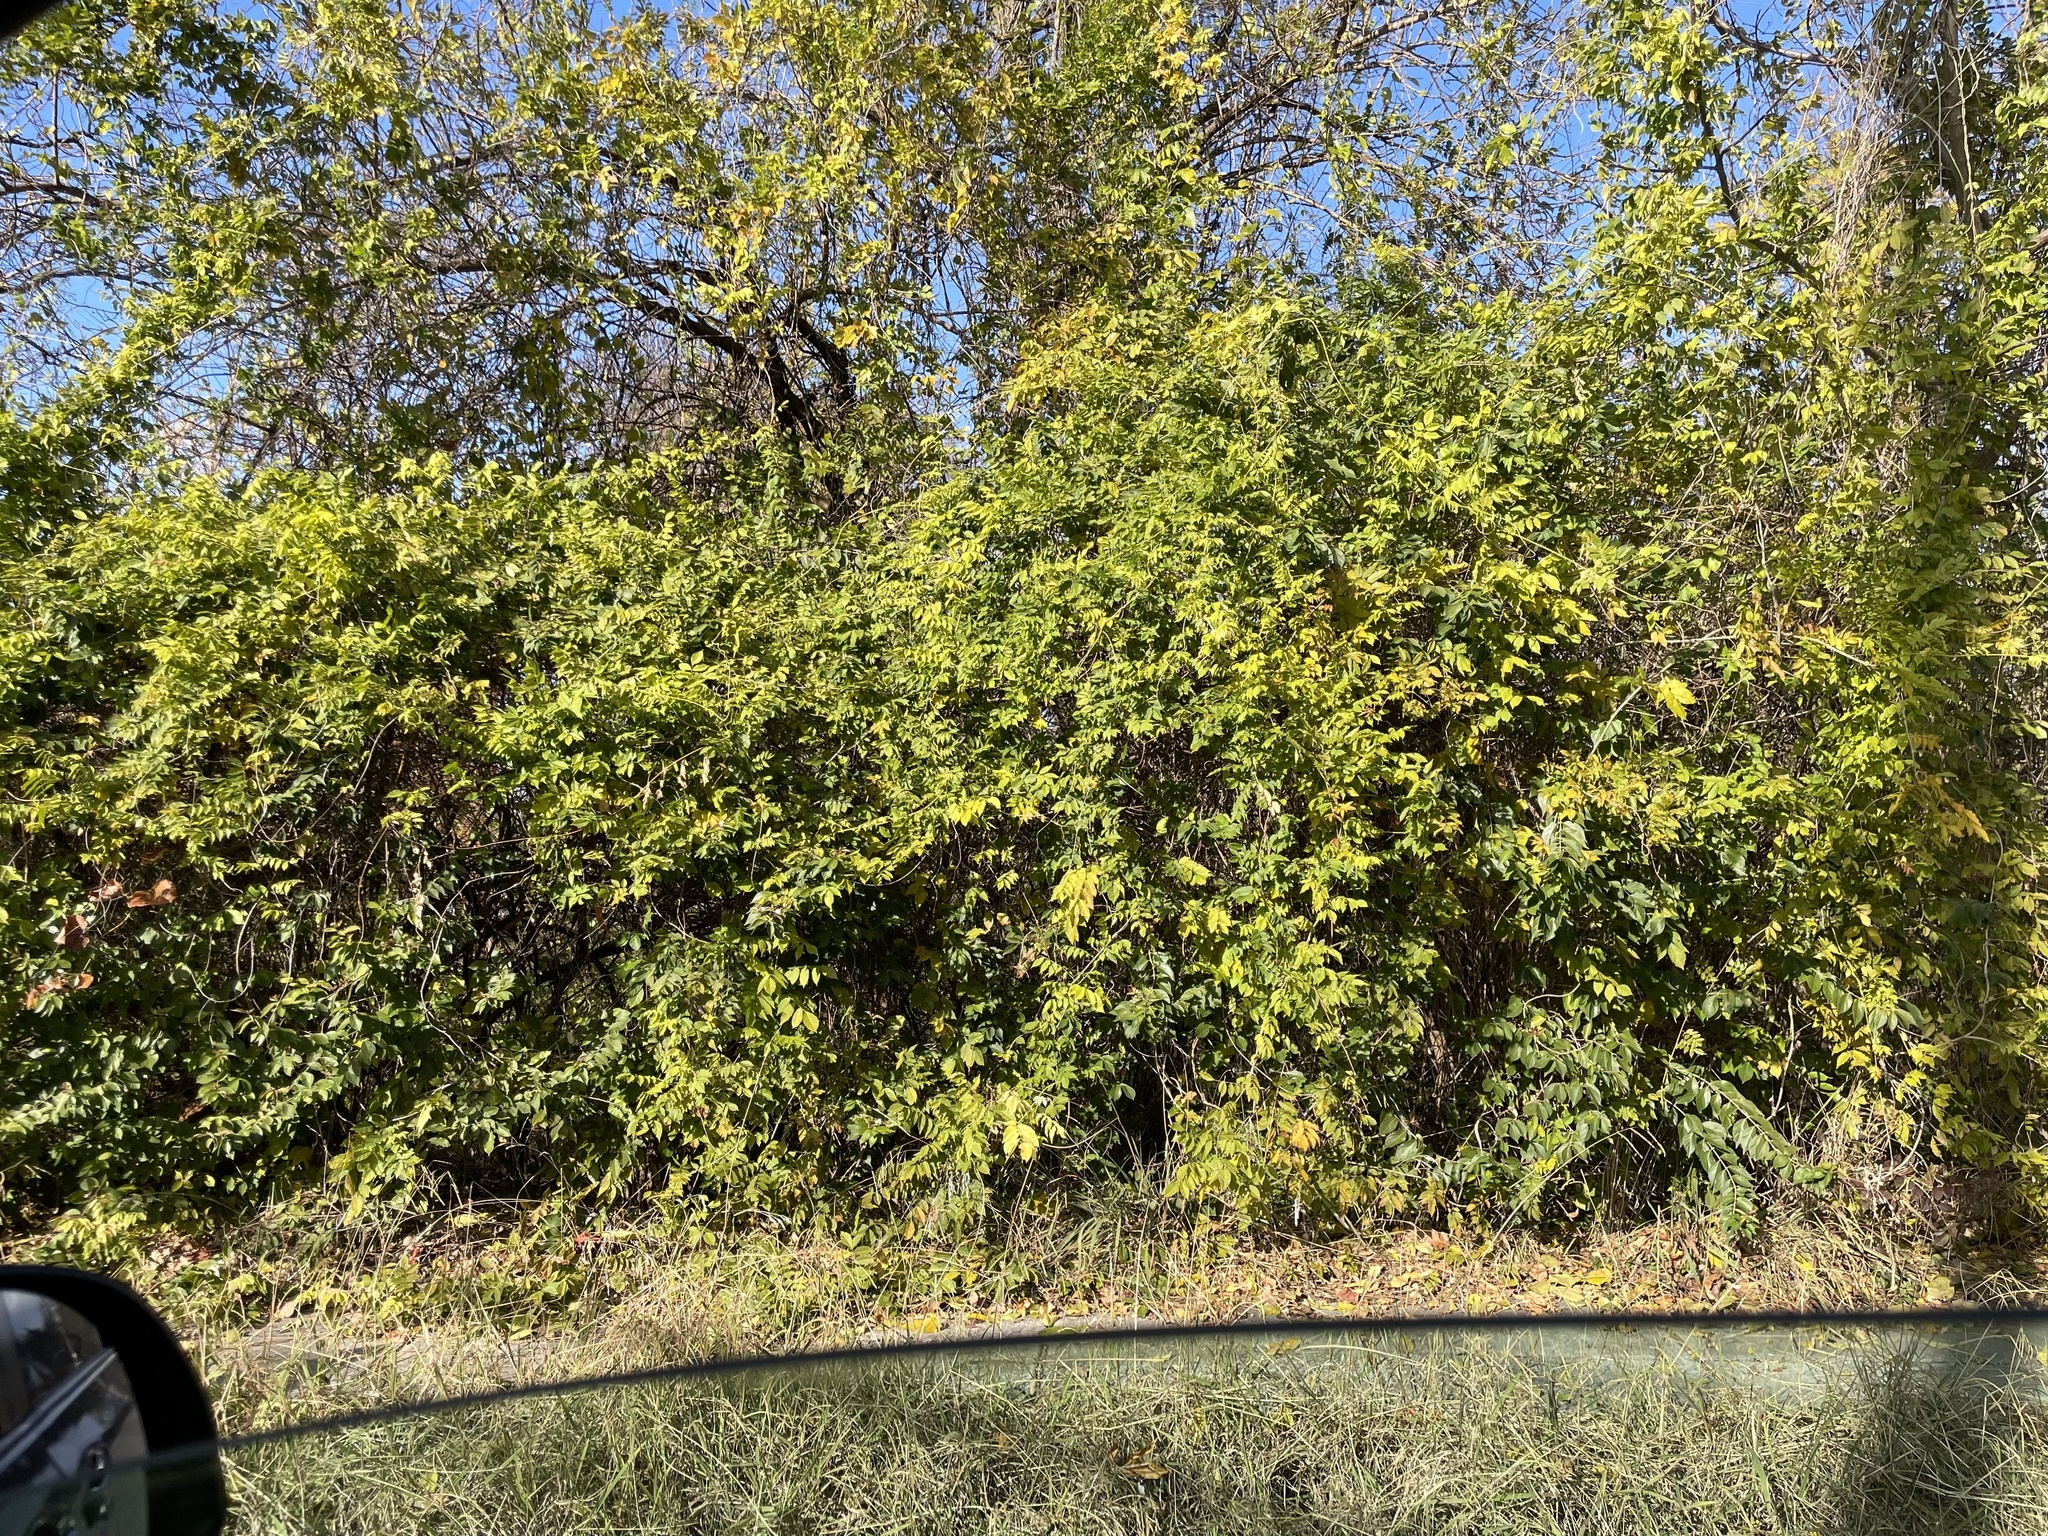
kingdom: Plantae
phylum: Tracheophyta
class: Magnoliopsida
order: Fabales
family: Fabaceae
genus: Wisteria
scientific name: Wisteria
